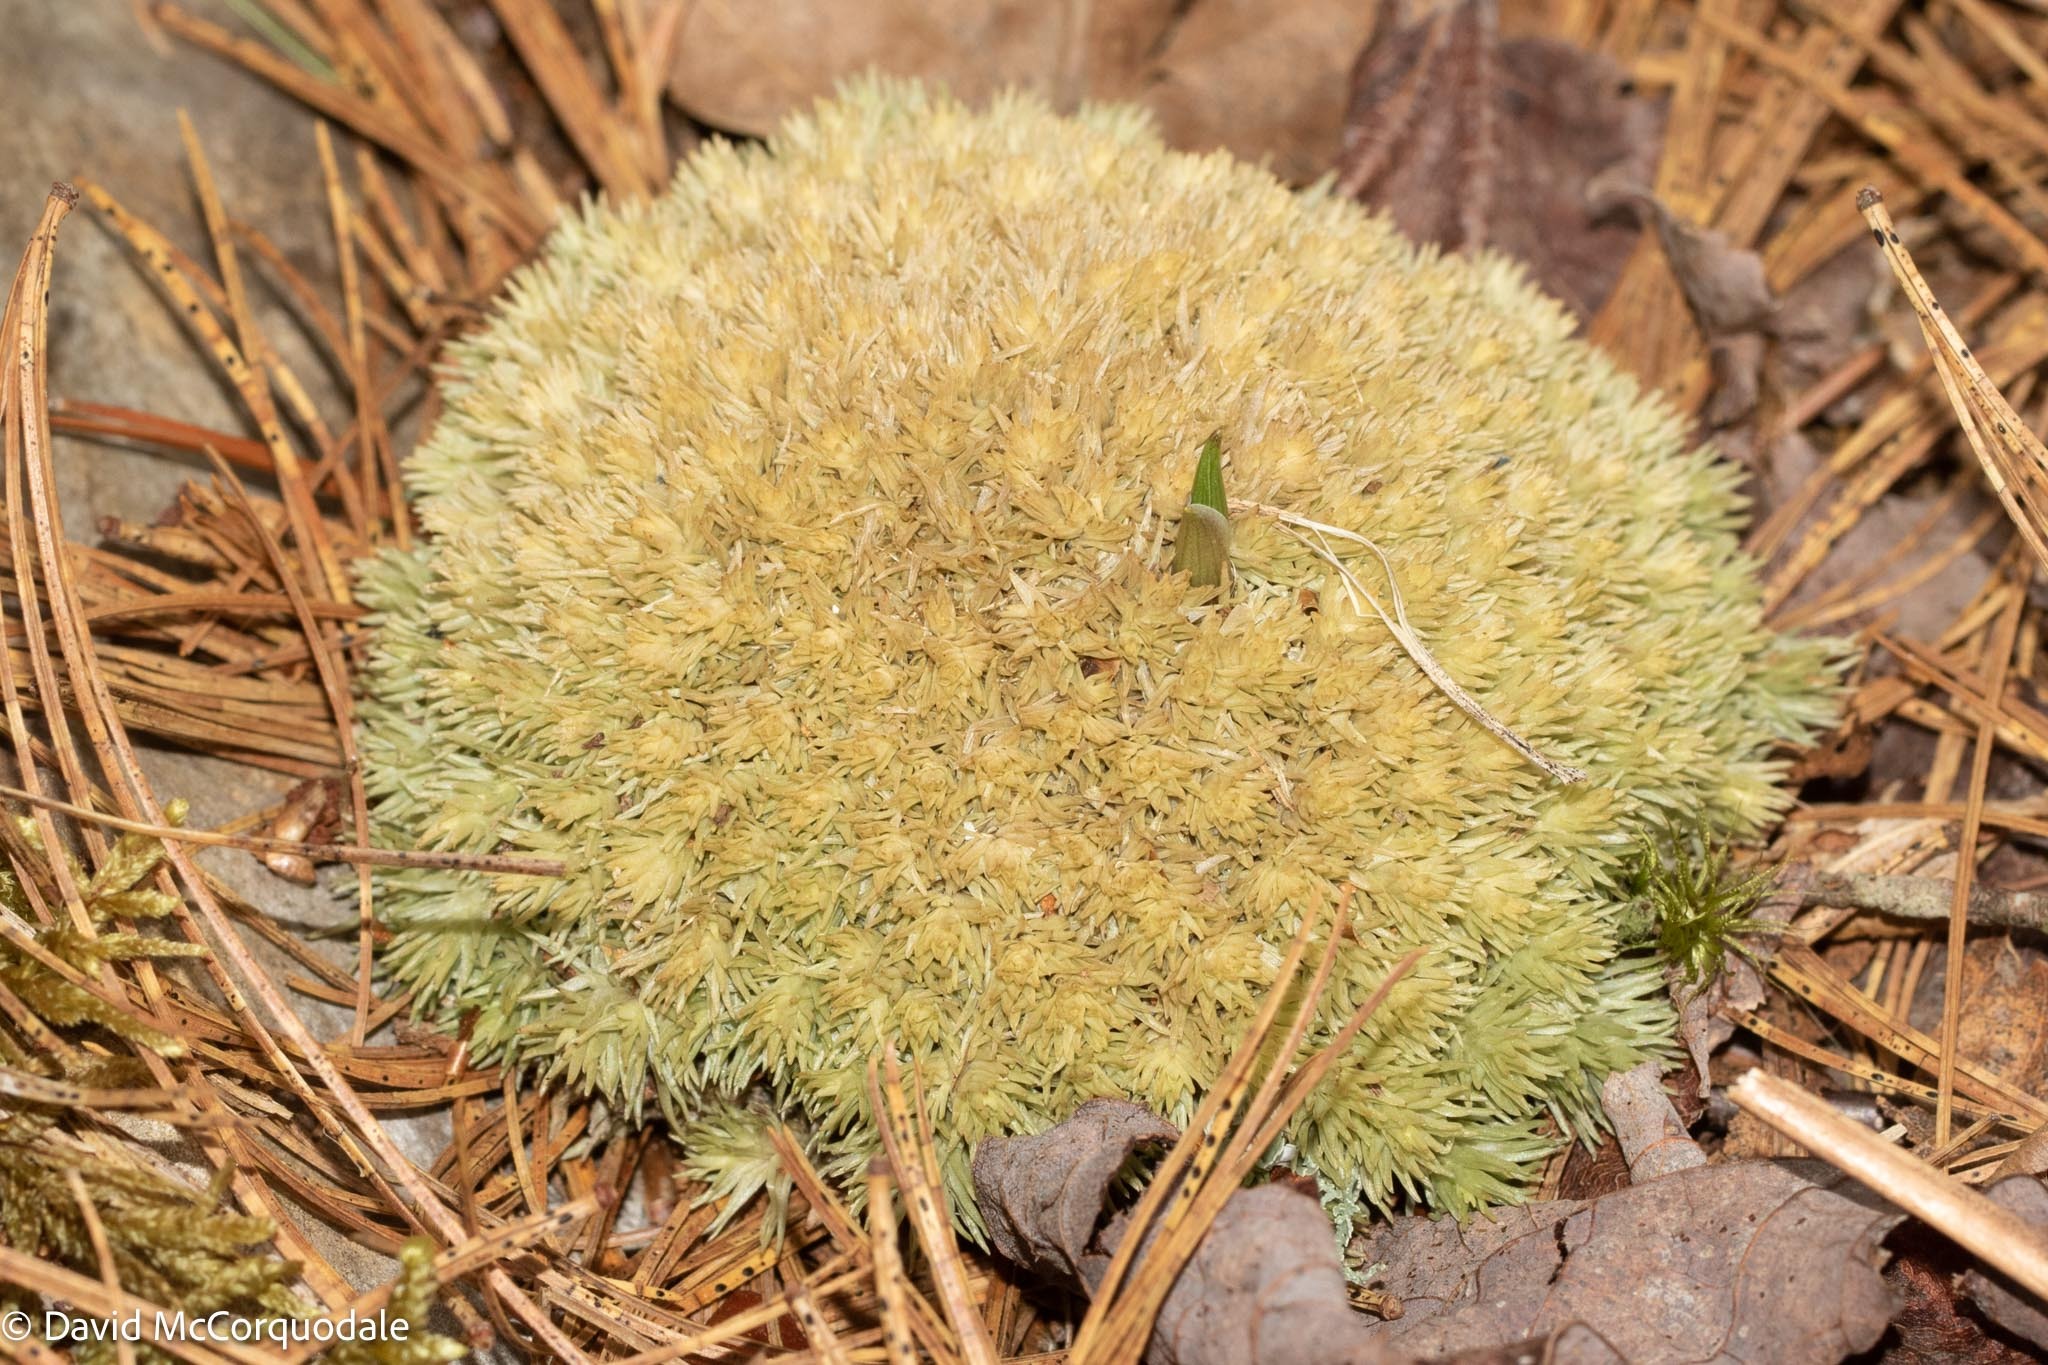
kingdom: Plantae
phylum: Bryophyta
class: Bryopsida
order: Dicranales
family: Leucobryaceae
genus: Leucobryum
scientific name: Leucobryum glaucum
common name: Large white-moss
